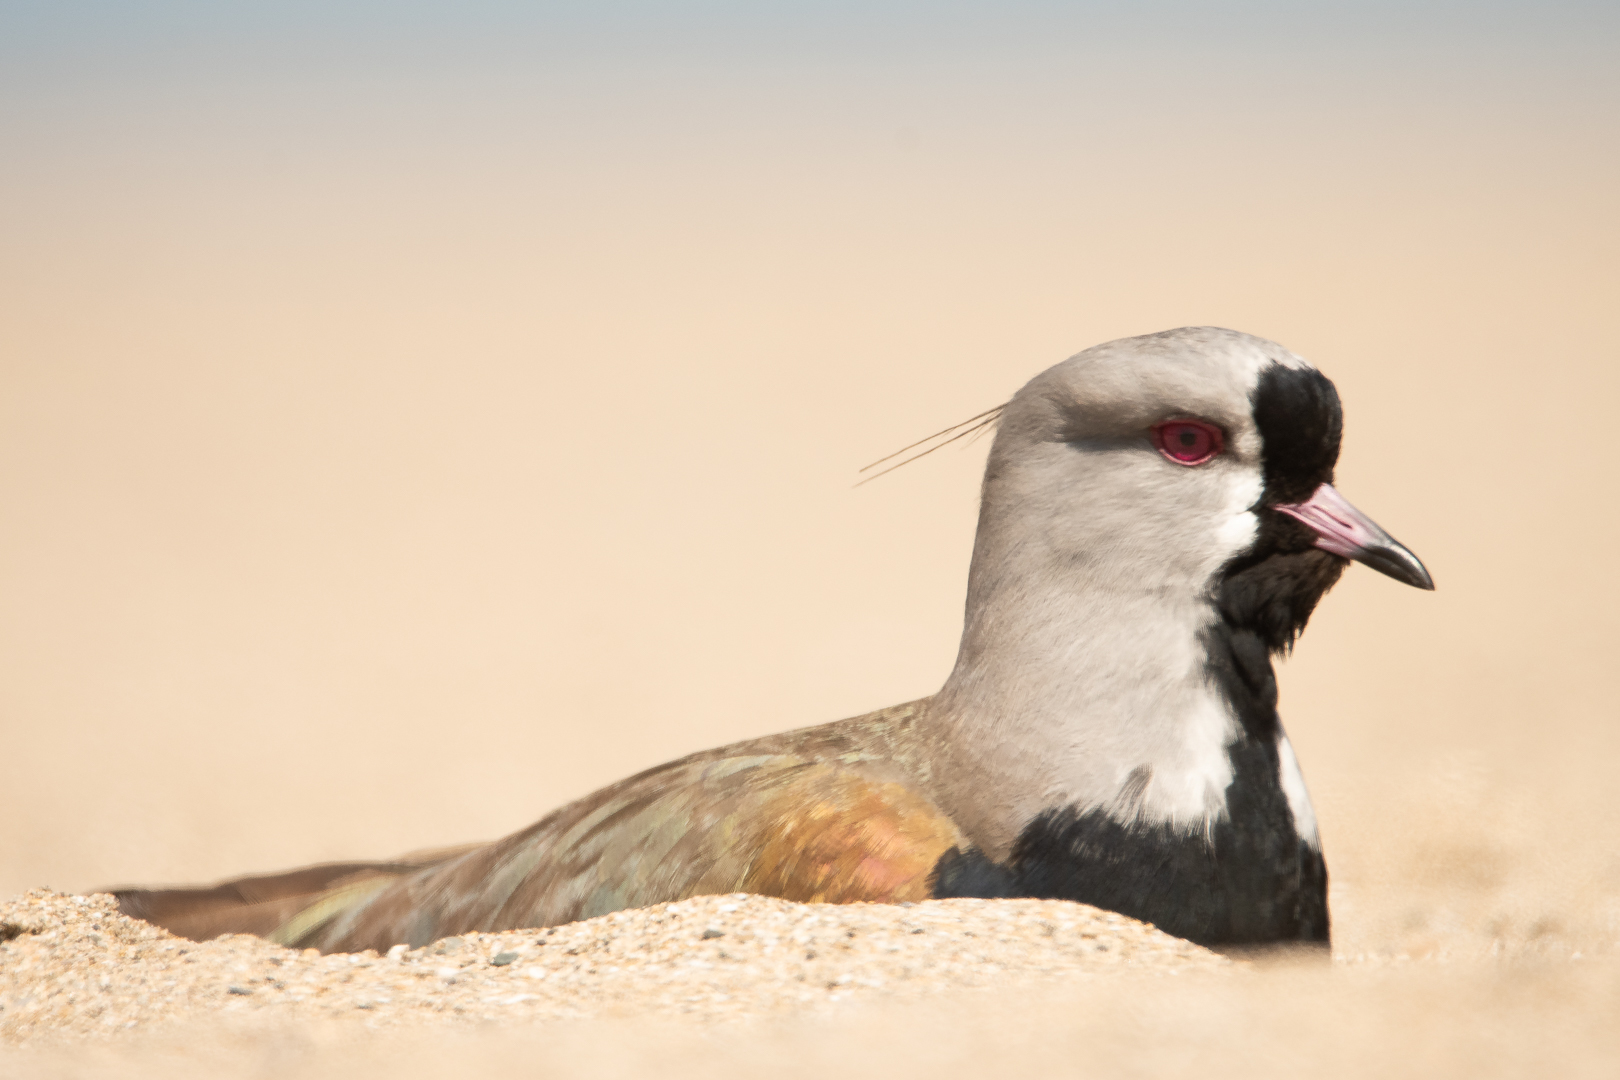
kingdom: Animalia
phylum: Chordata
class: Aves
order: Charadriiformes
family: Charadriidae
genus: Vanellus
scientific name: Vanellus chilensis
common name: Southern lapwing
